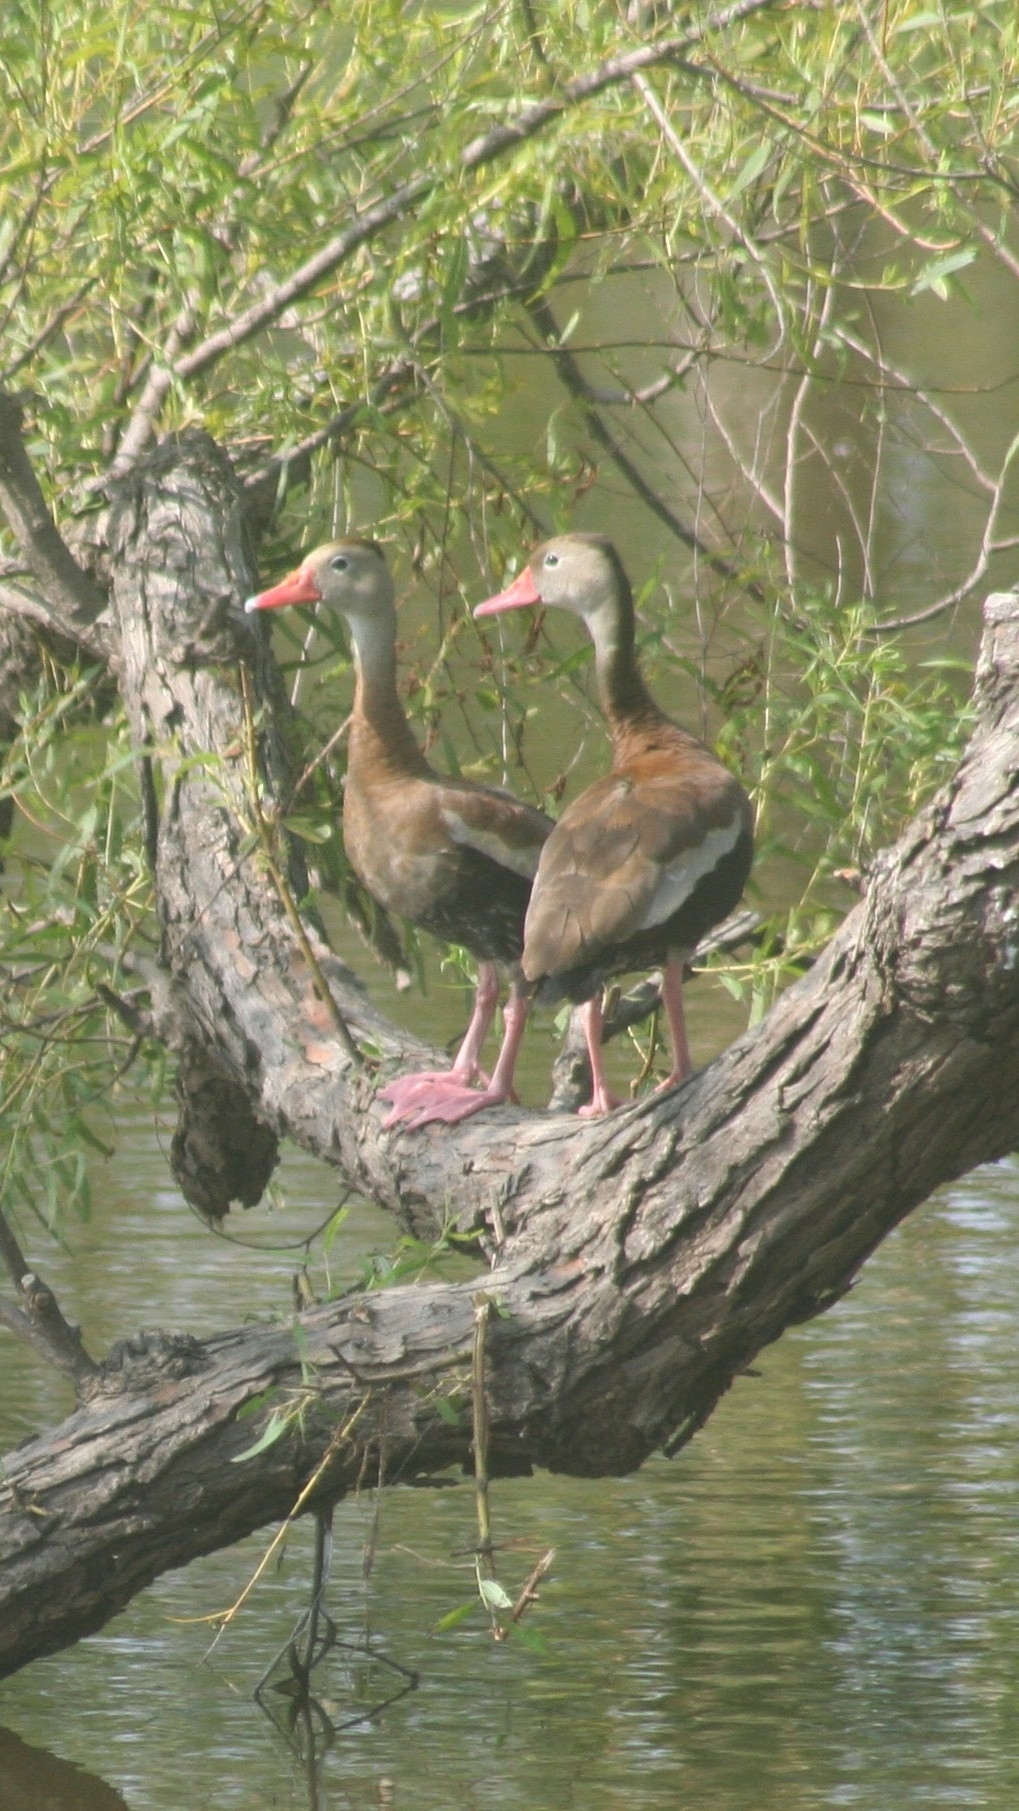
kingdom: Animalia
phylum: Chordata
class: Aves
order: Anseriformes
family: Anatidae
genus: Dendrocygna
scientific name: Dendrocygna autumnalis
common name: Black-bellied whistling duck
